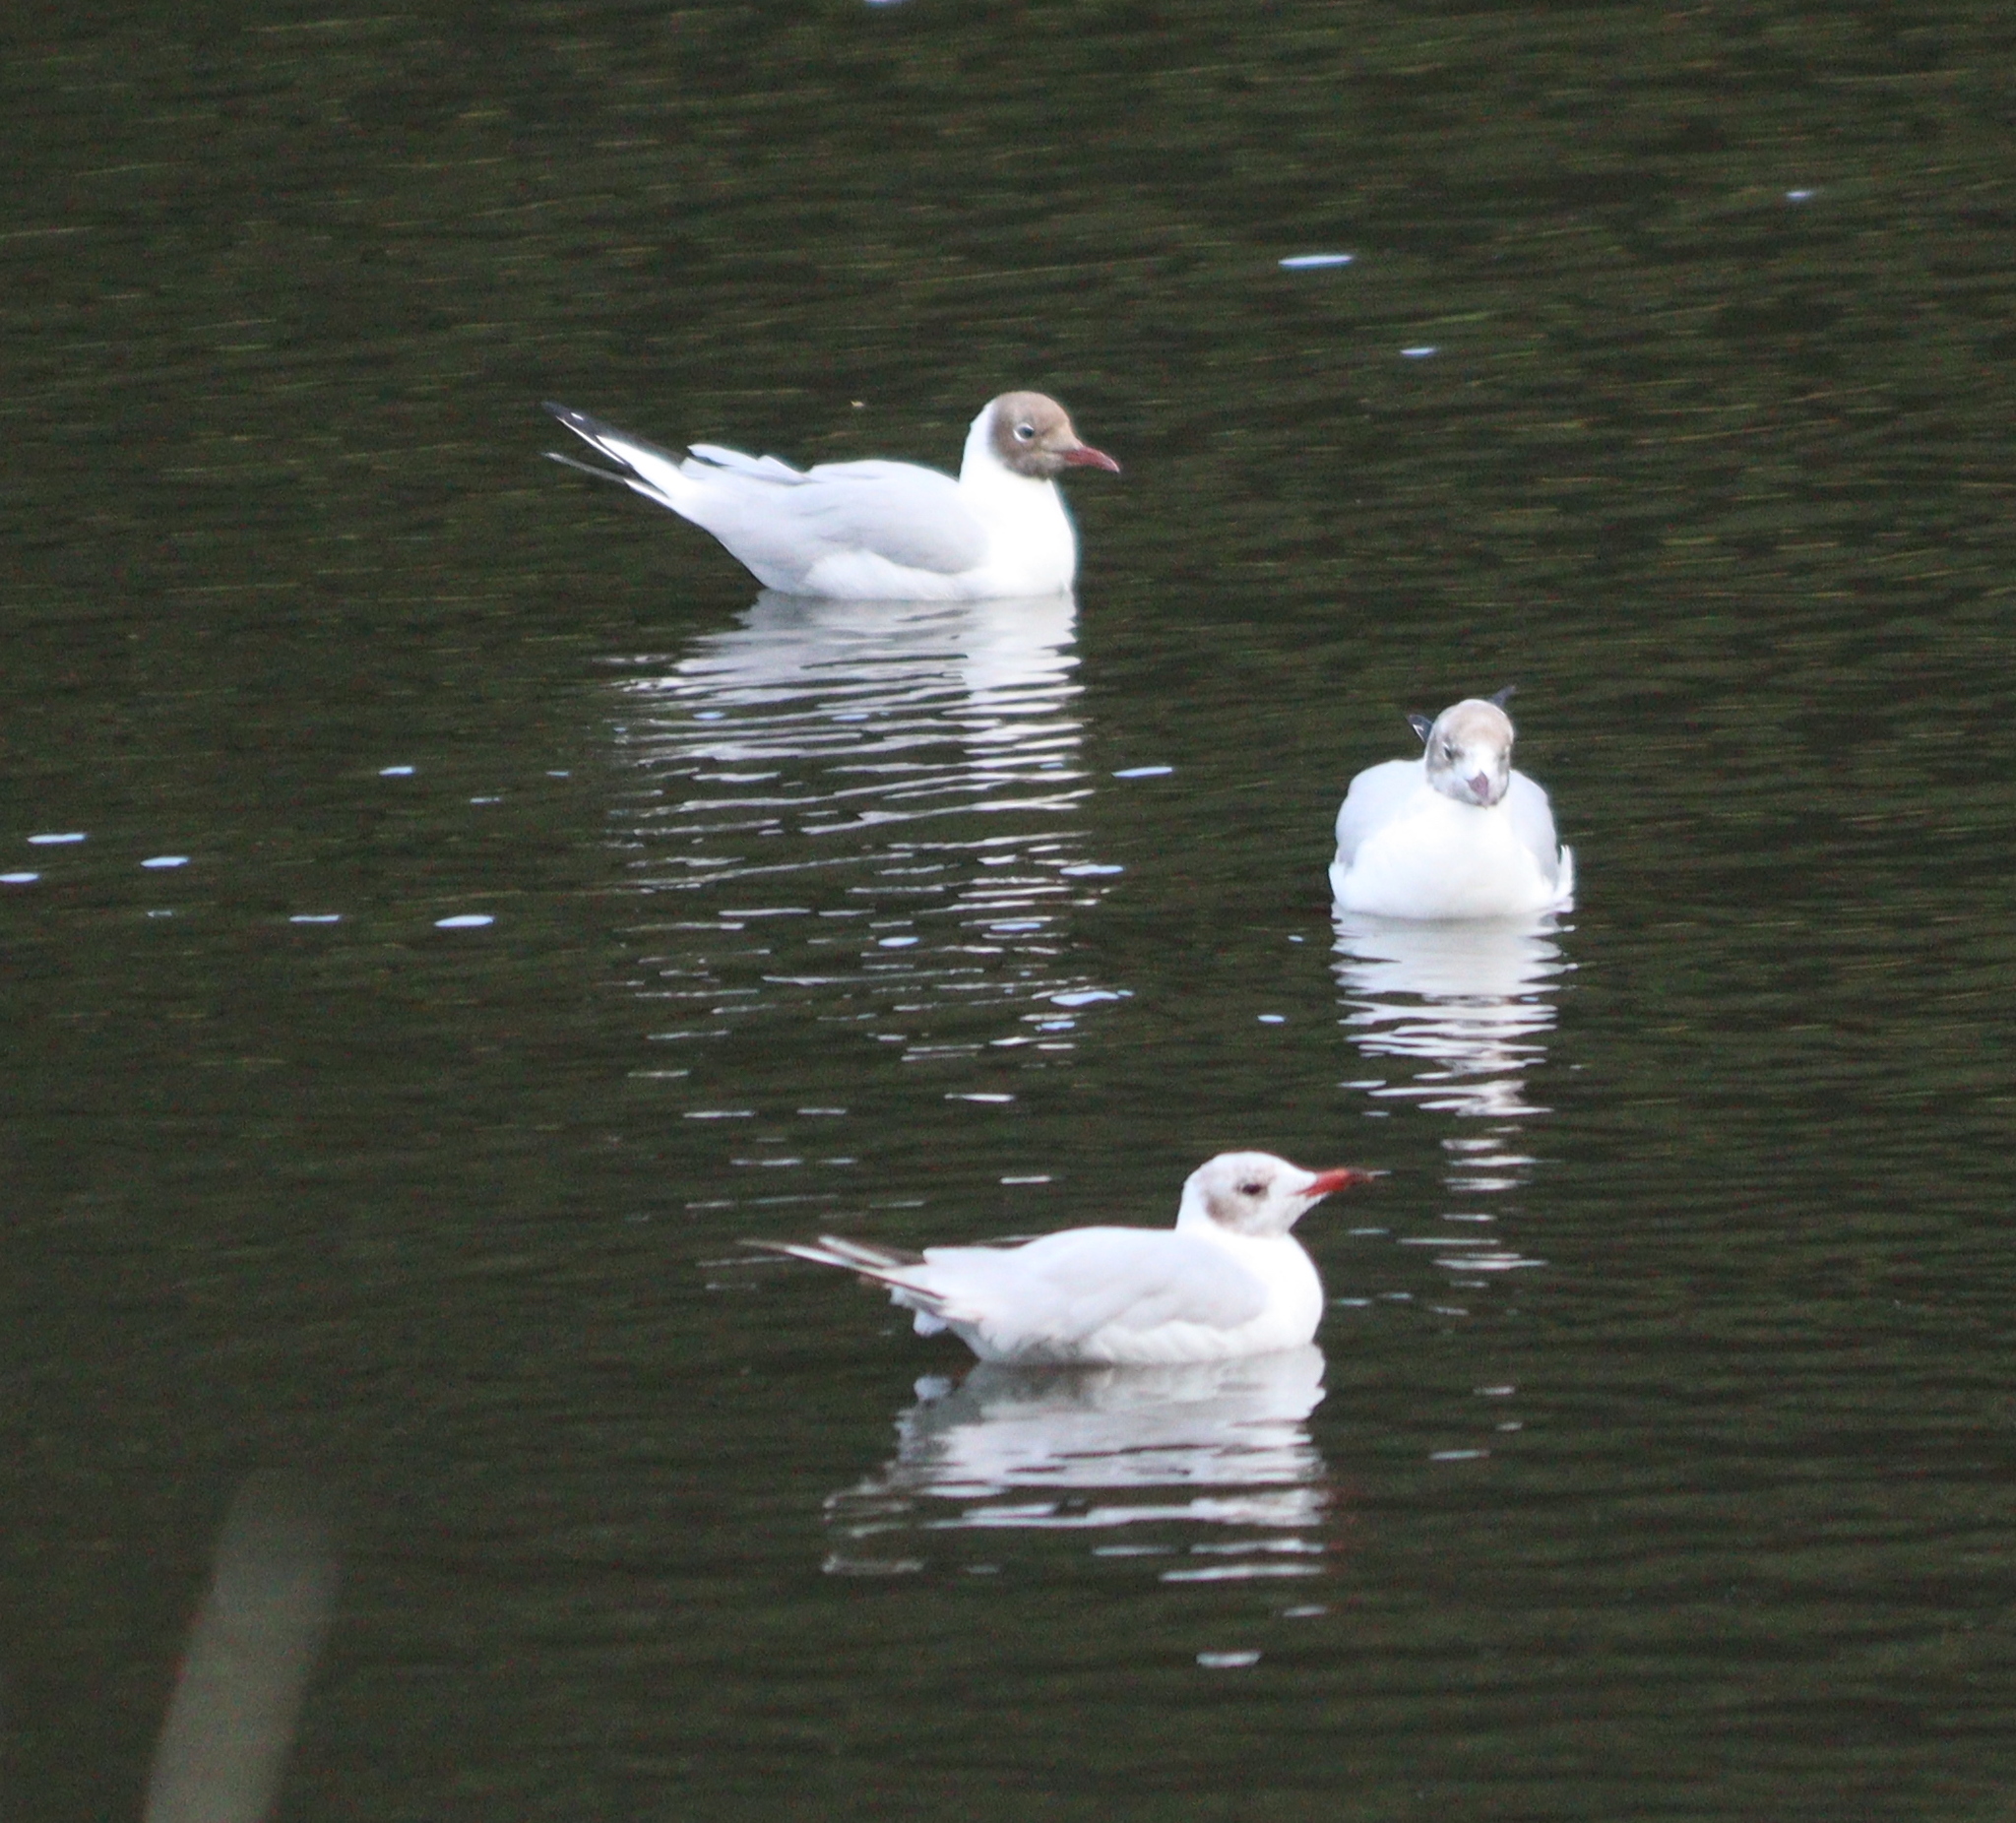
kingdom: Animalia
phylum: Chordata
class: Aves
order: Charadriiformes
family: Laridae
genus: Chroicocephalus
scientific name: Chroicocephalus ridibundus
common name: Black-headed gull
